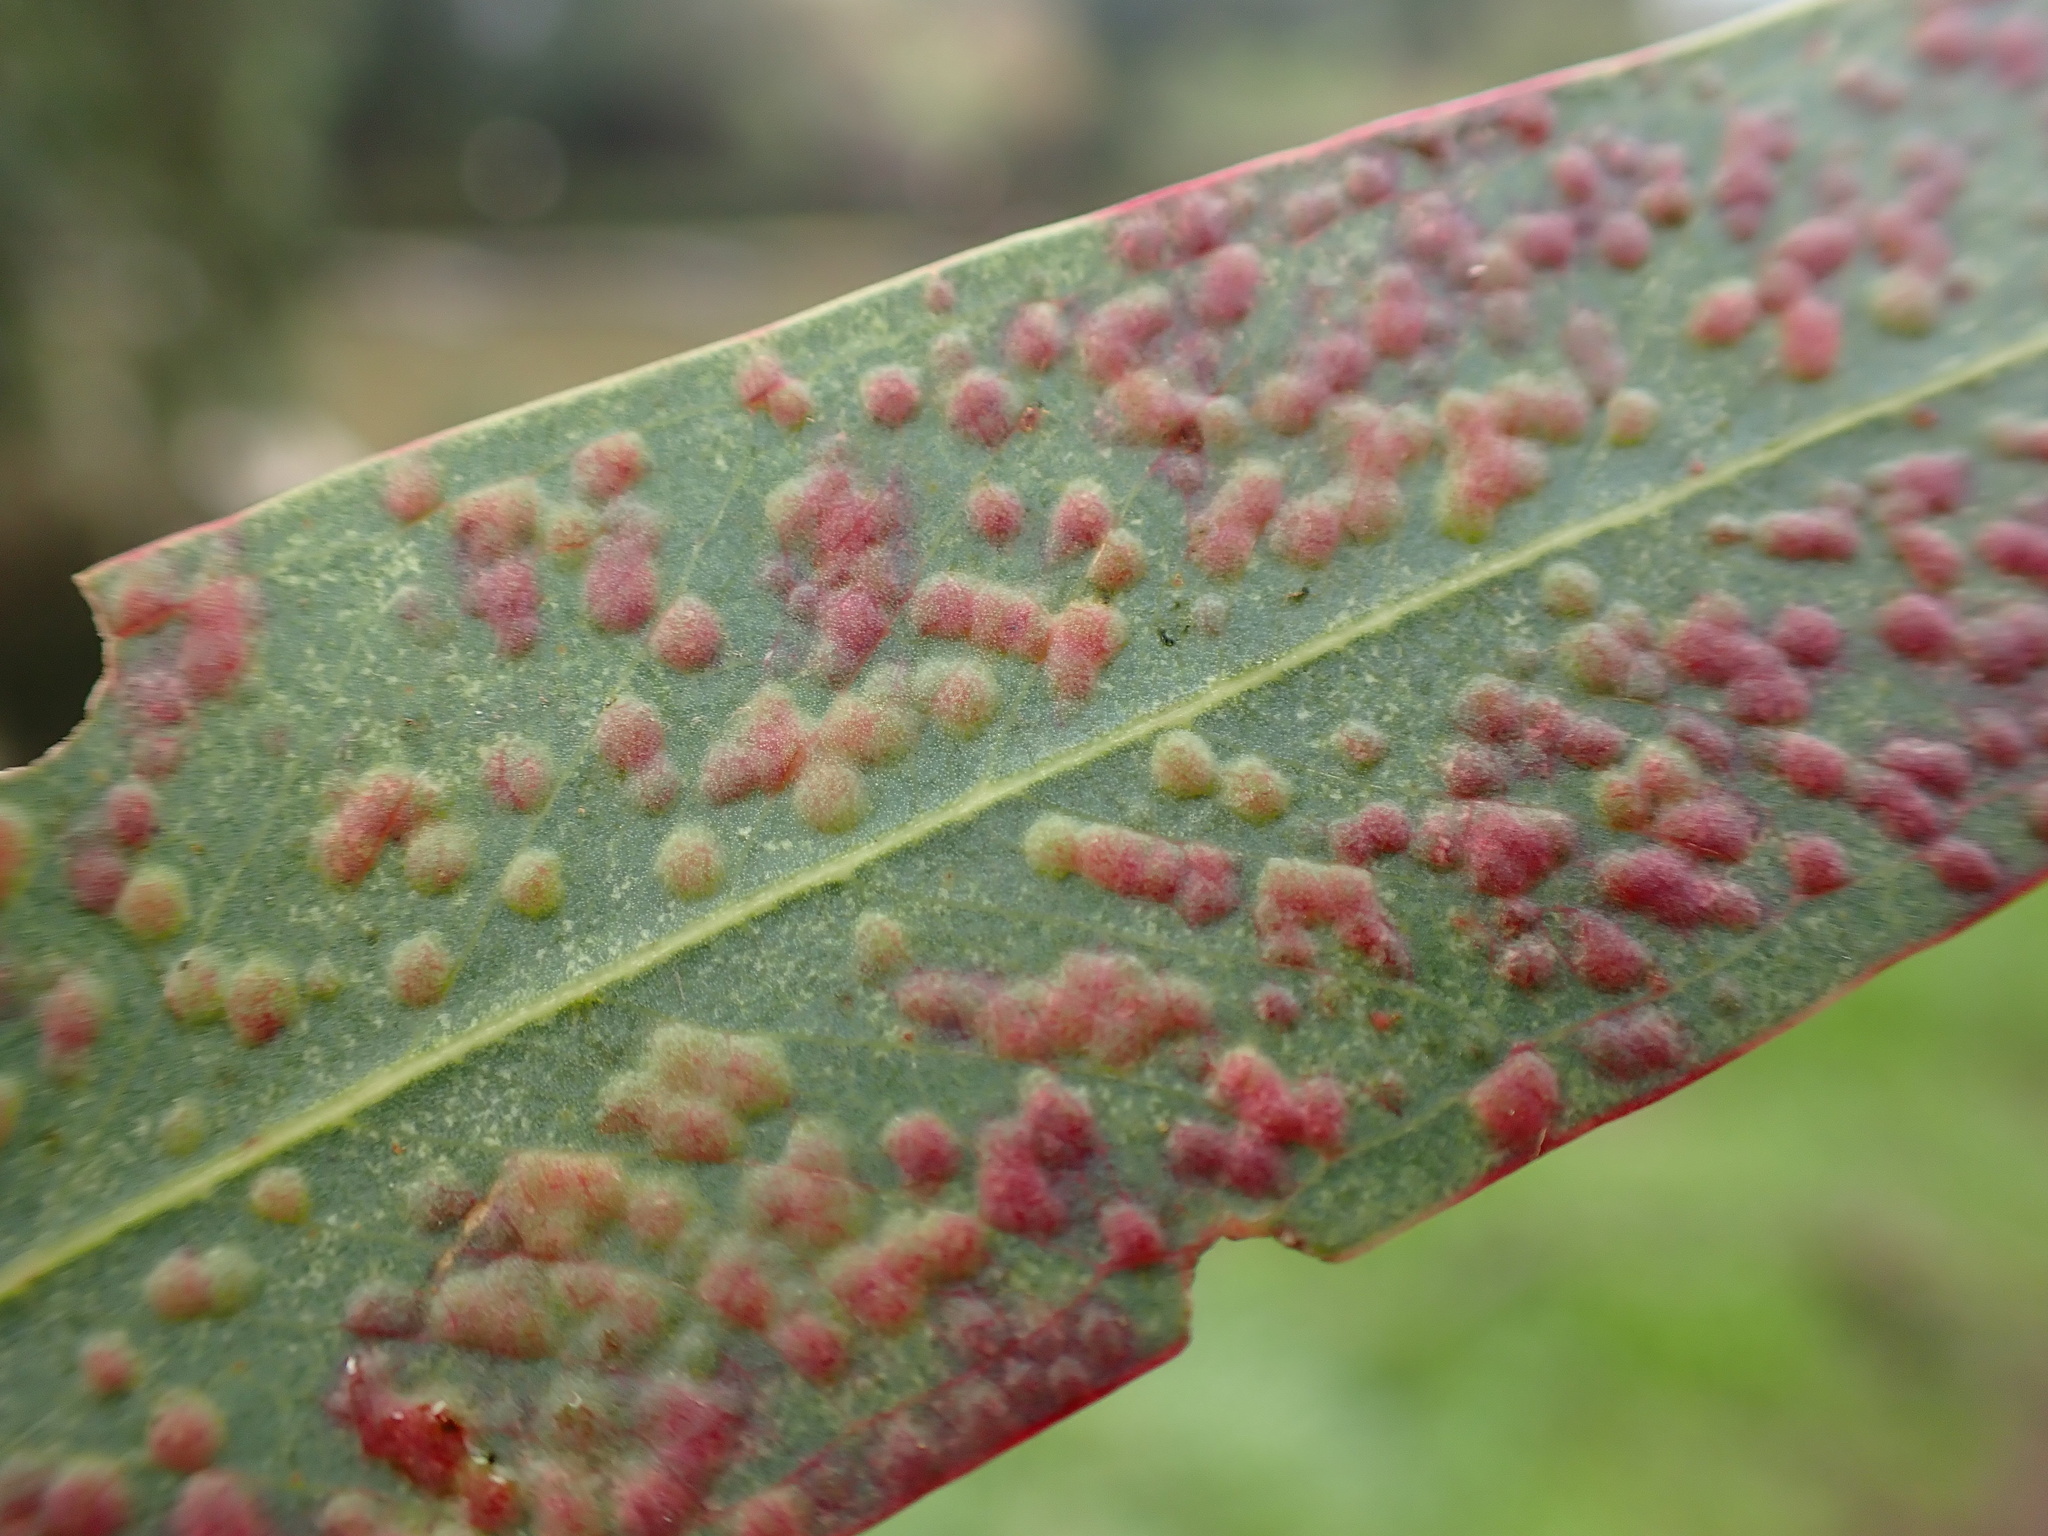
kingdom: Animalia
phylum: Arthropoda
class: Insecta
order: Hymenoptera
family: Eulophidae
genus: Ophelimus
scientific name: Ophelimus maskelli
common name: Gall wasp
